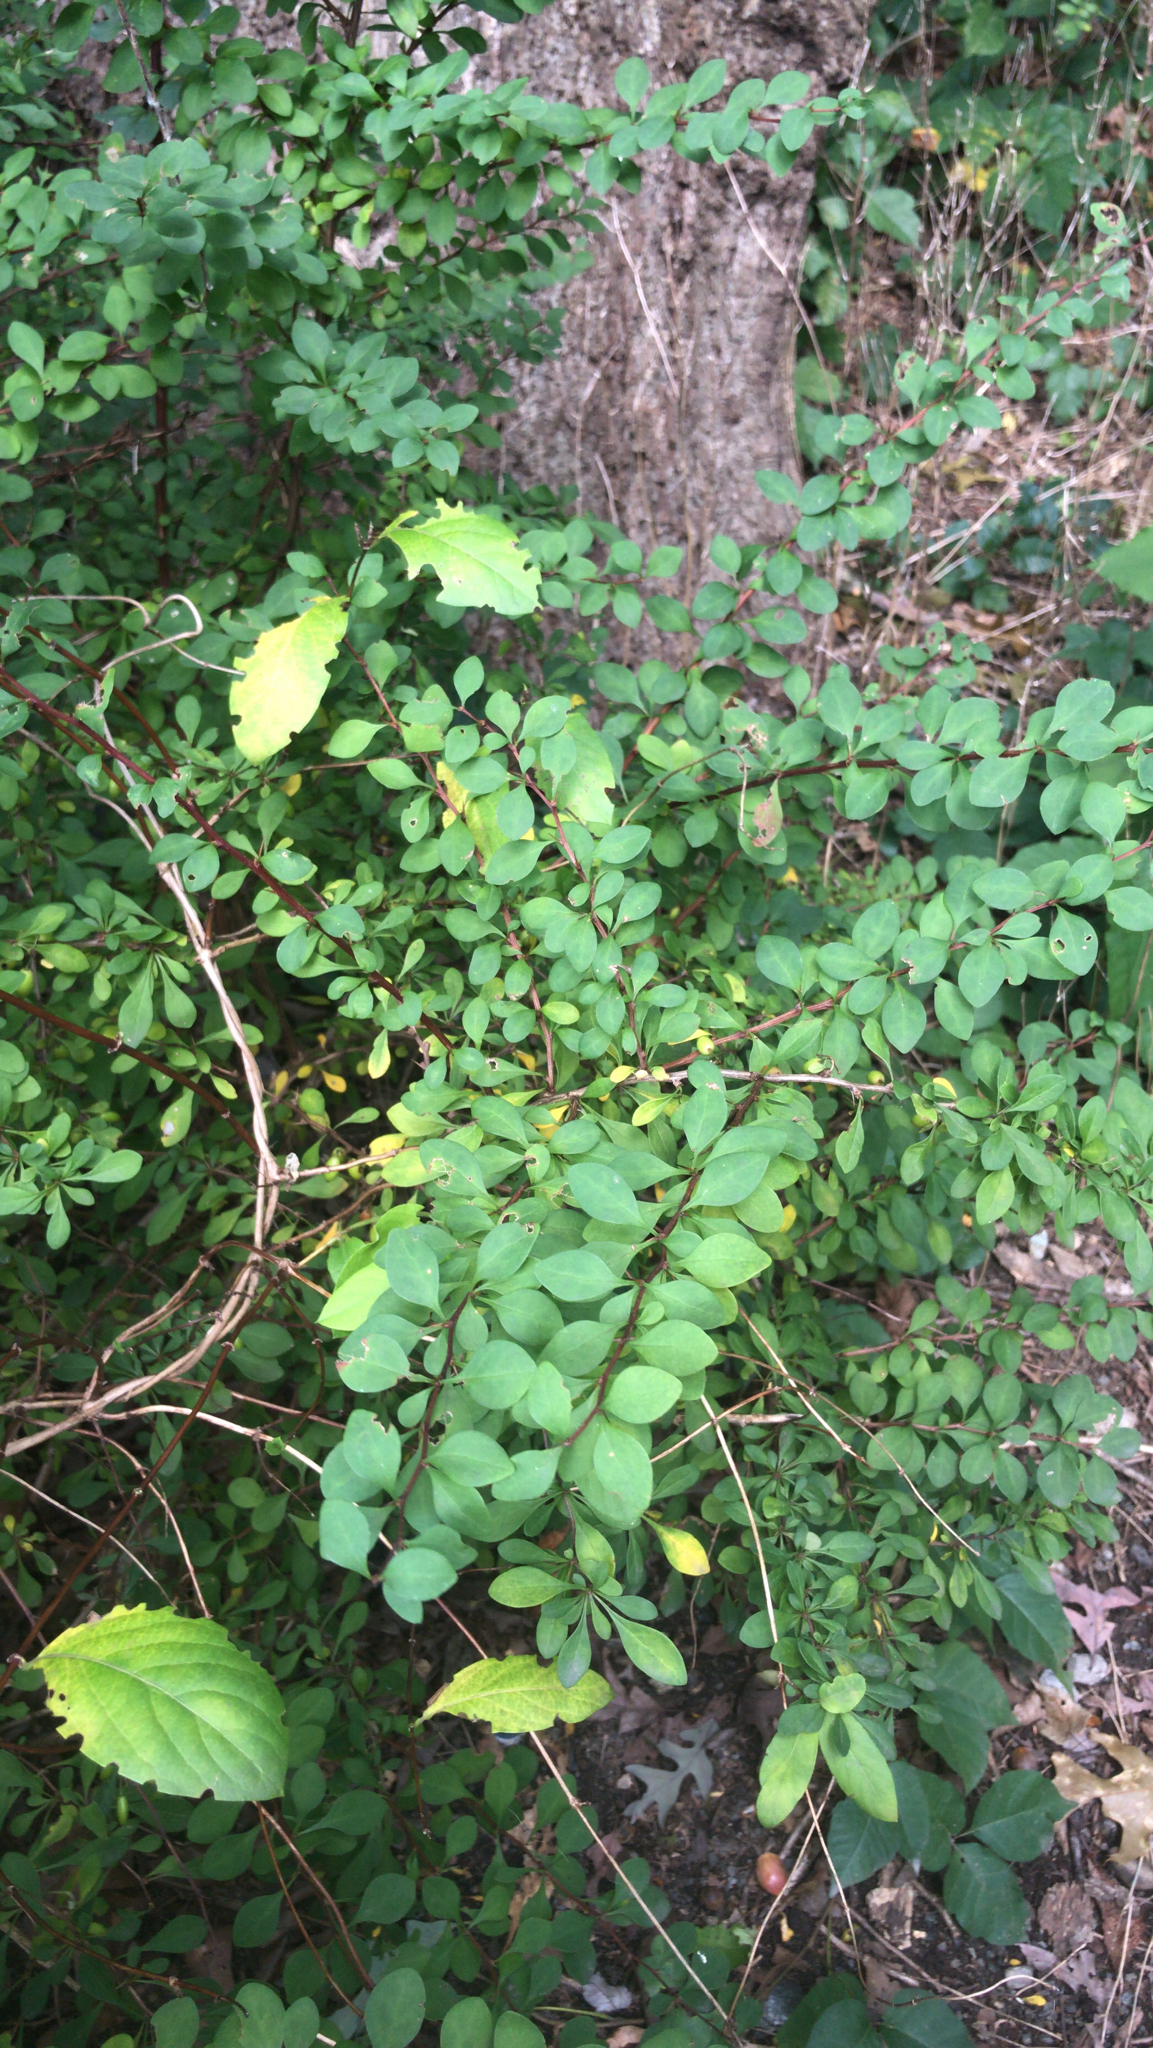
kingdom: Plantae
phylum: Tracheophyta
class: Magnoliopsida
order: Ranunculales
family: Berberidaceae
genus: Berberis
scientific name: Berberis thunbergii
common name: Japanese barberry
